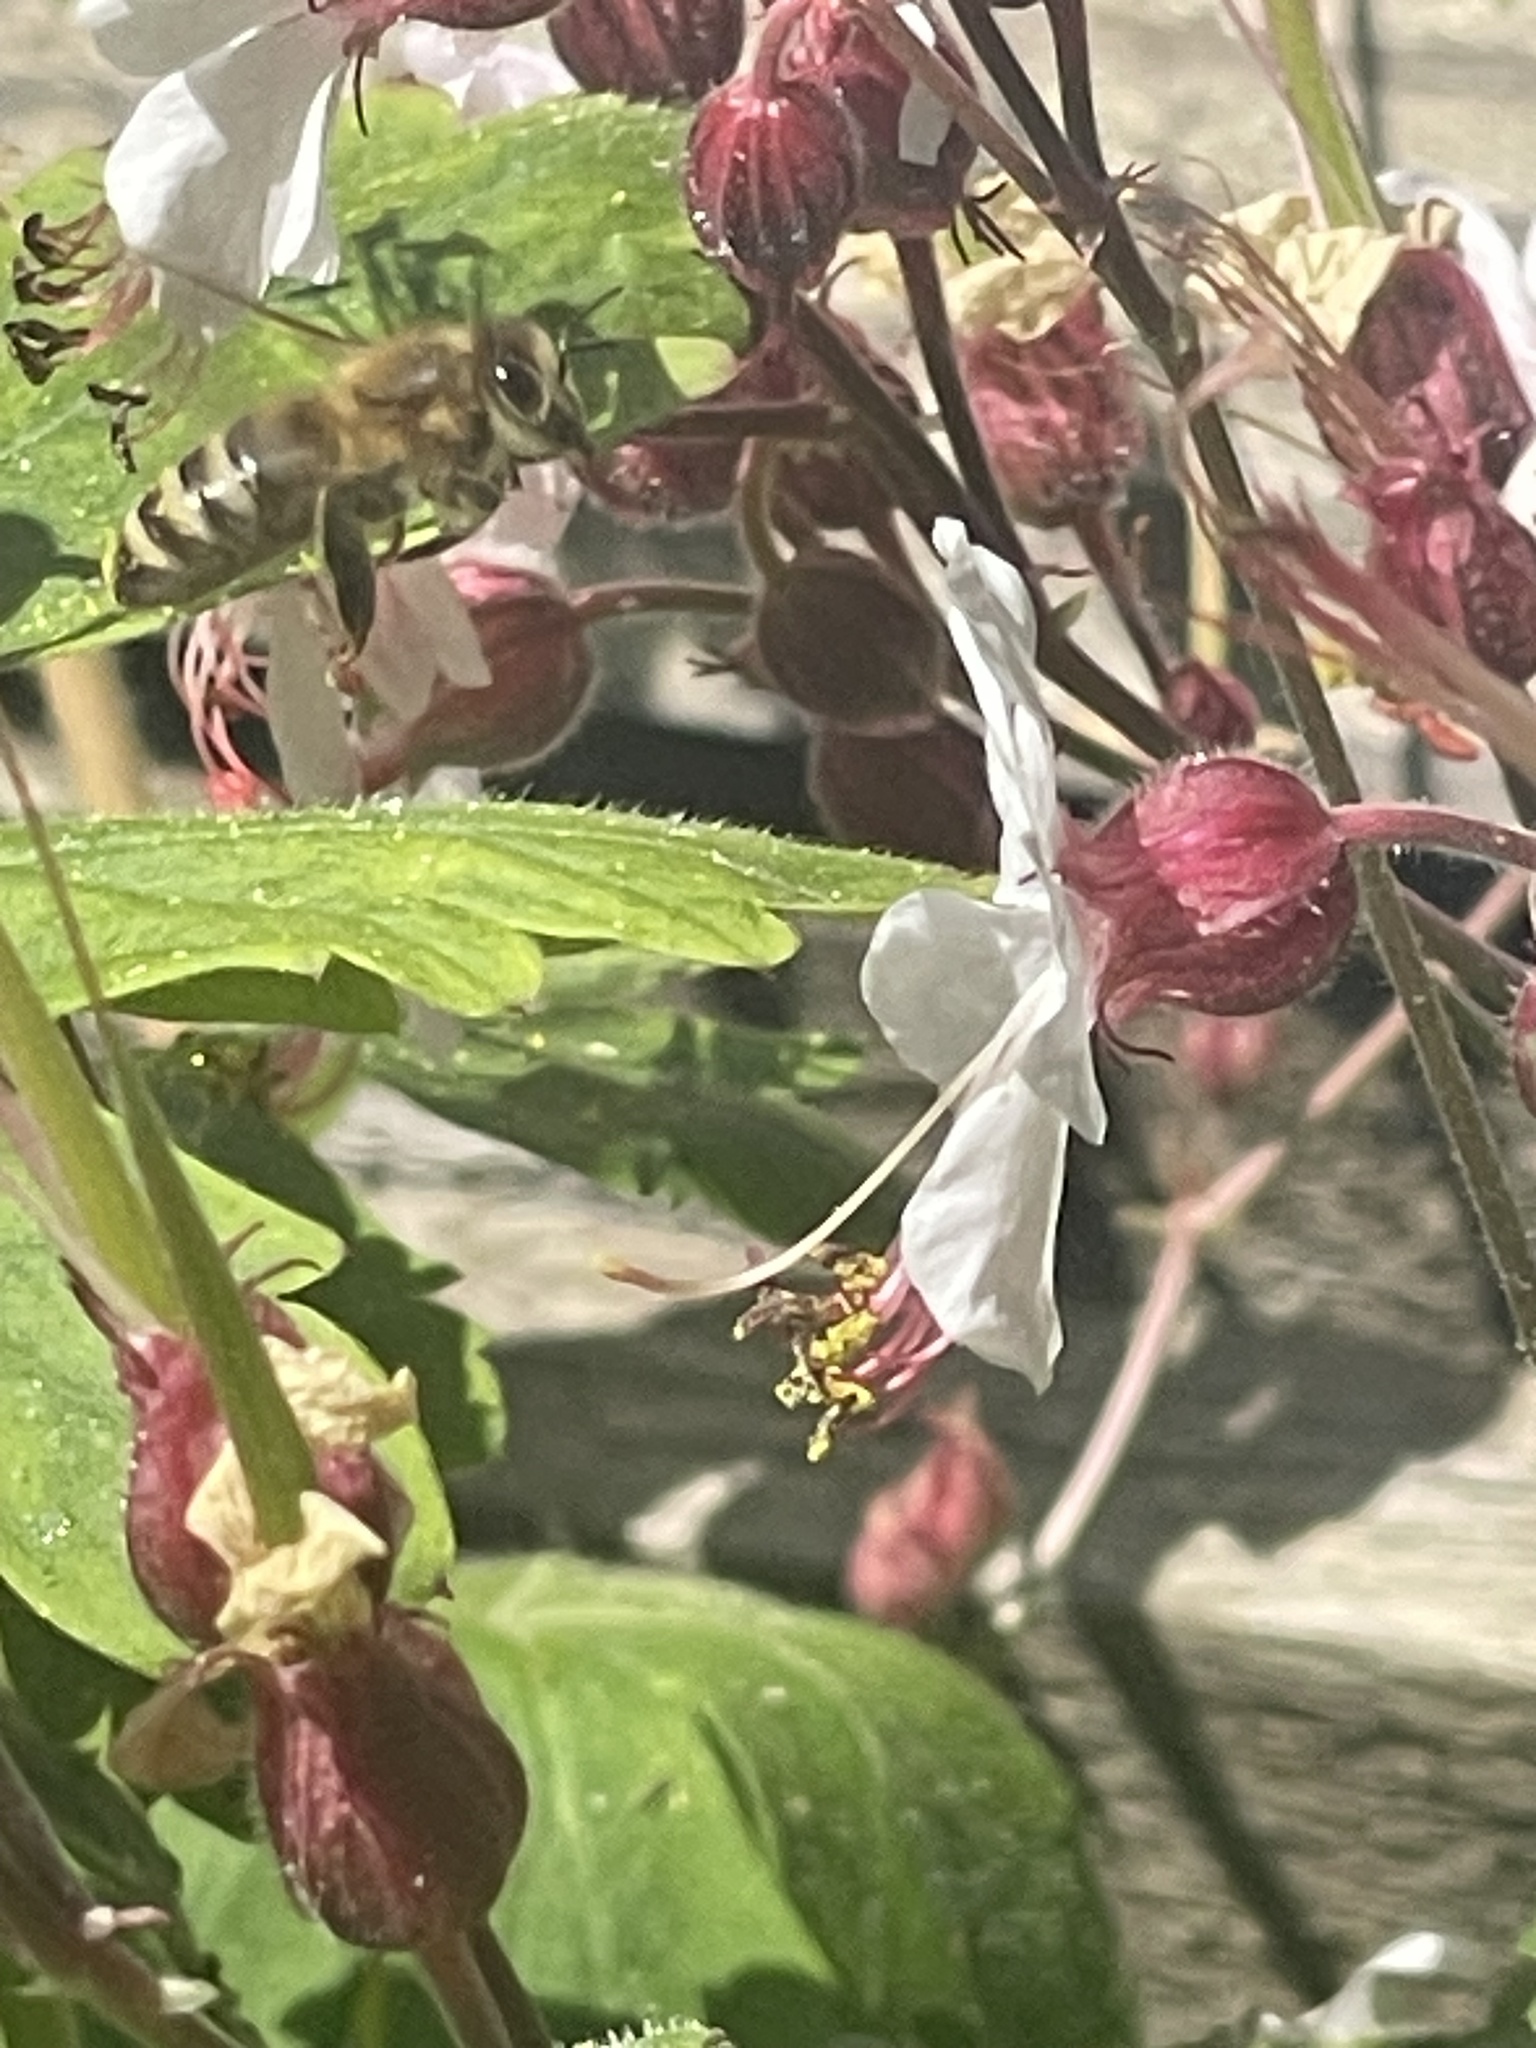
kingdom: Animalia
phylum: Arthropoda
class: Insecta
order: Hymenoptera
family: Apidae
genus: Apis
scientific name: Apis mellifera
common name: Honey bee
